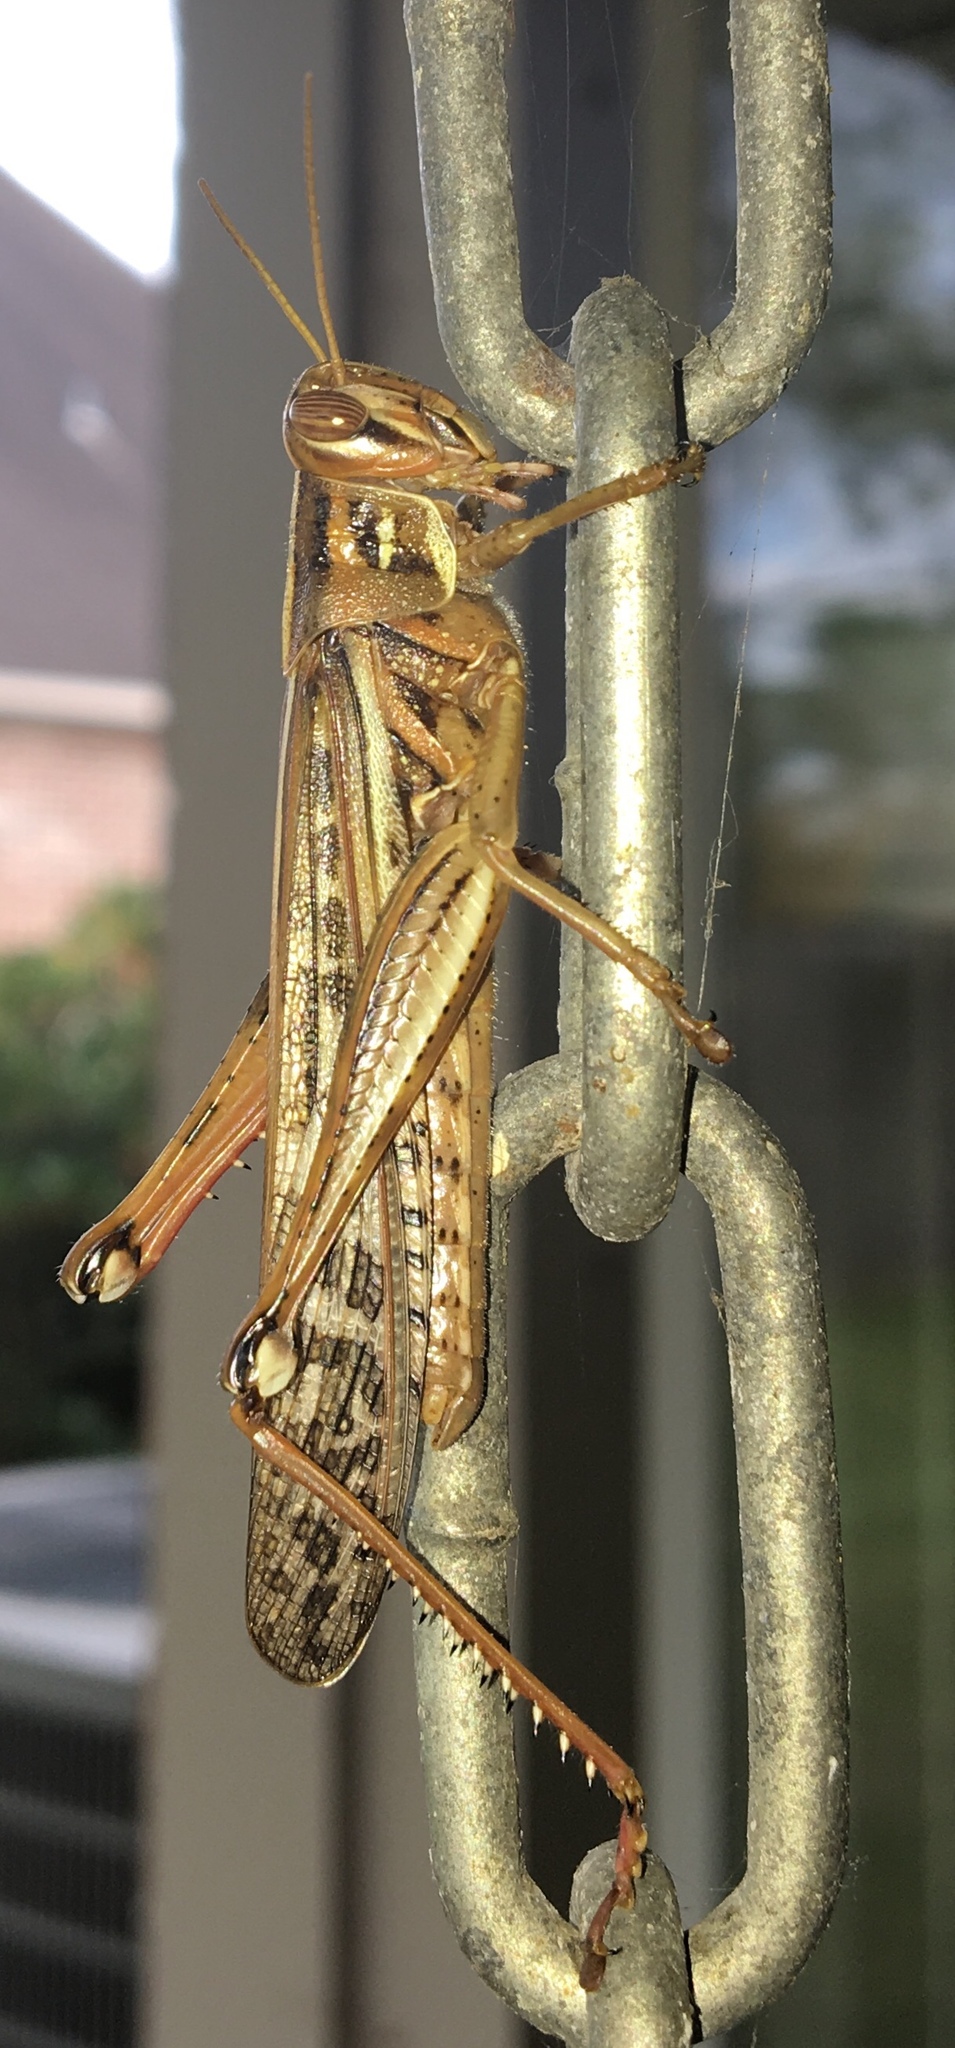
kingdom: Animalia
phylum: Arthropoda
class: Insecta
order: Orthoptera
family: Acrididae
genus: Schistocerca
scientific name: Schistocerca americana
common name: American bird locust
